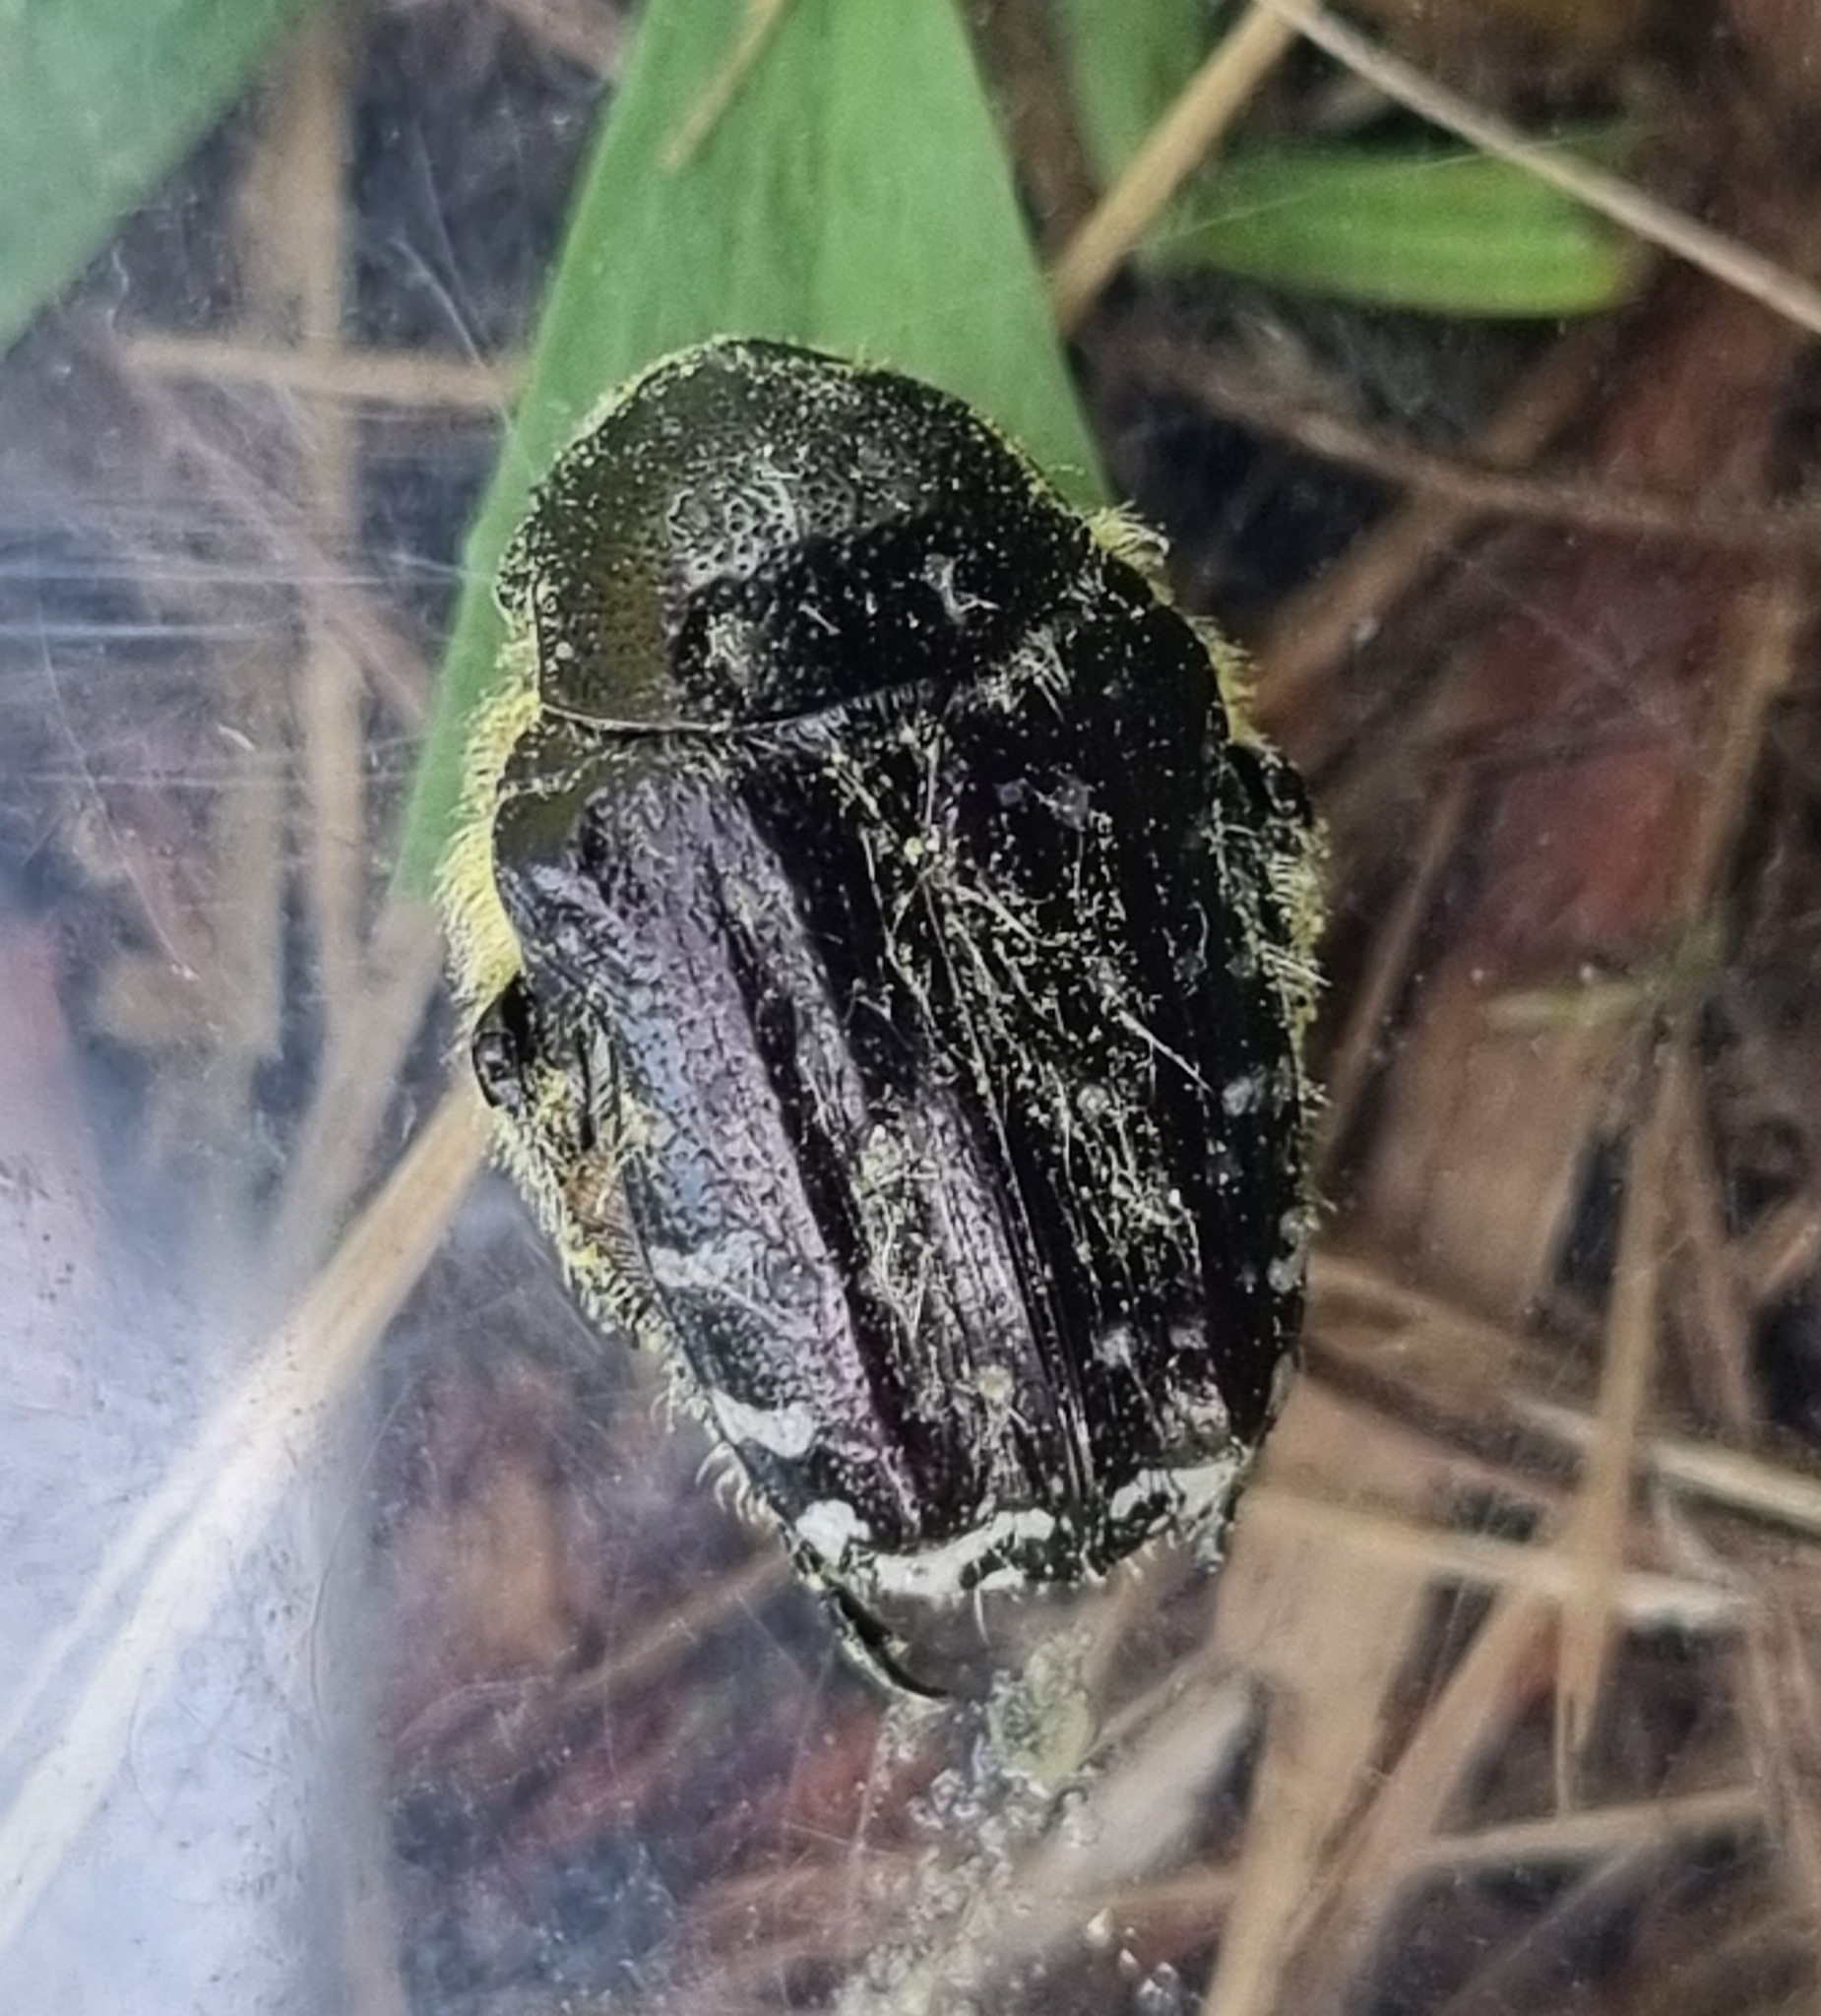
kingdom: Animalia
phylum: Arthropoda
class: Insecta
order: Coleoptera
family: Scarabaeidae
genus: Oxythyrea
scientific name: Oxythyrea funesta
